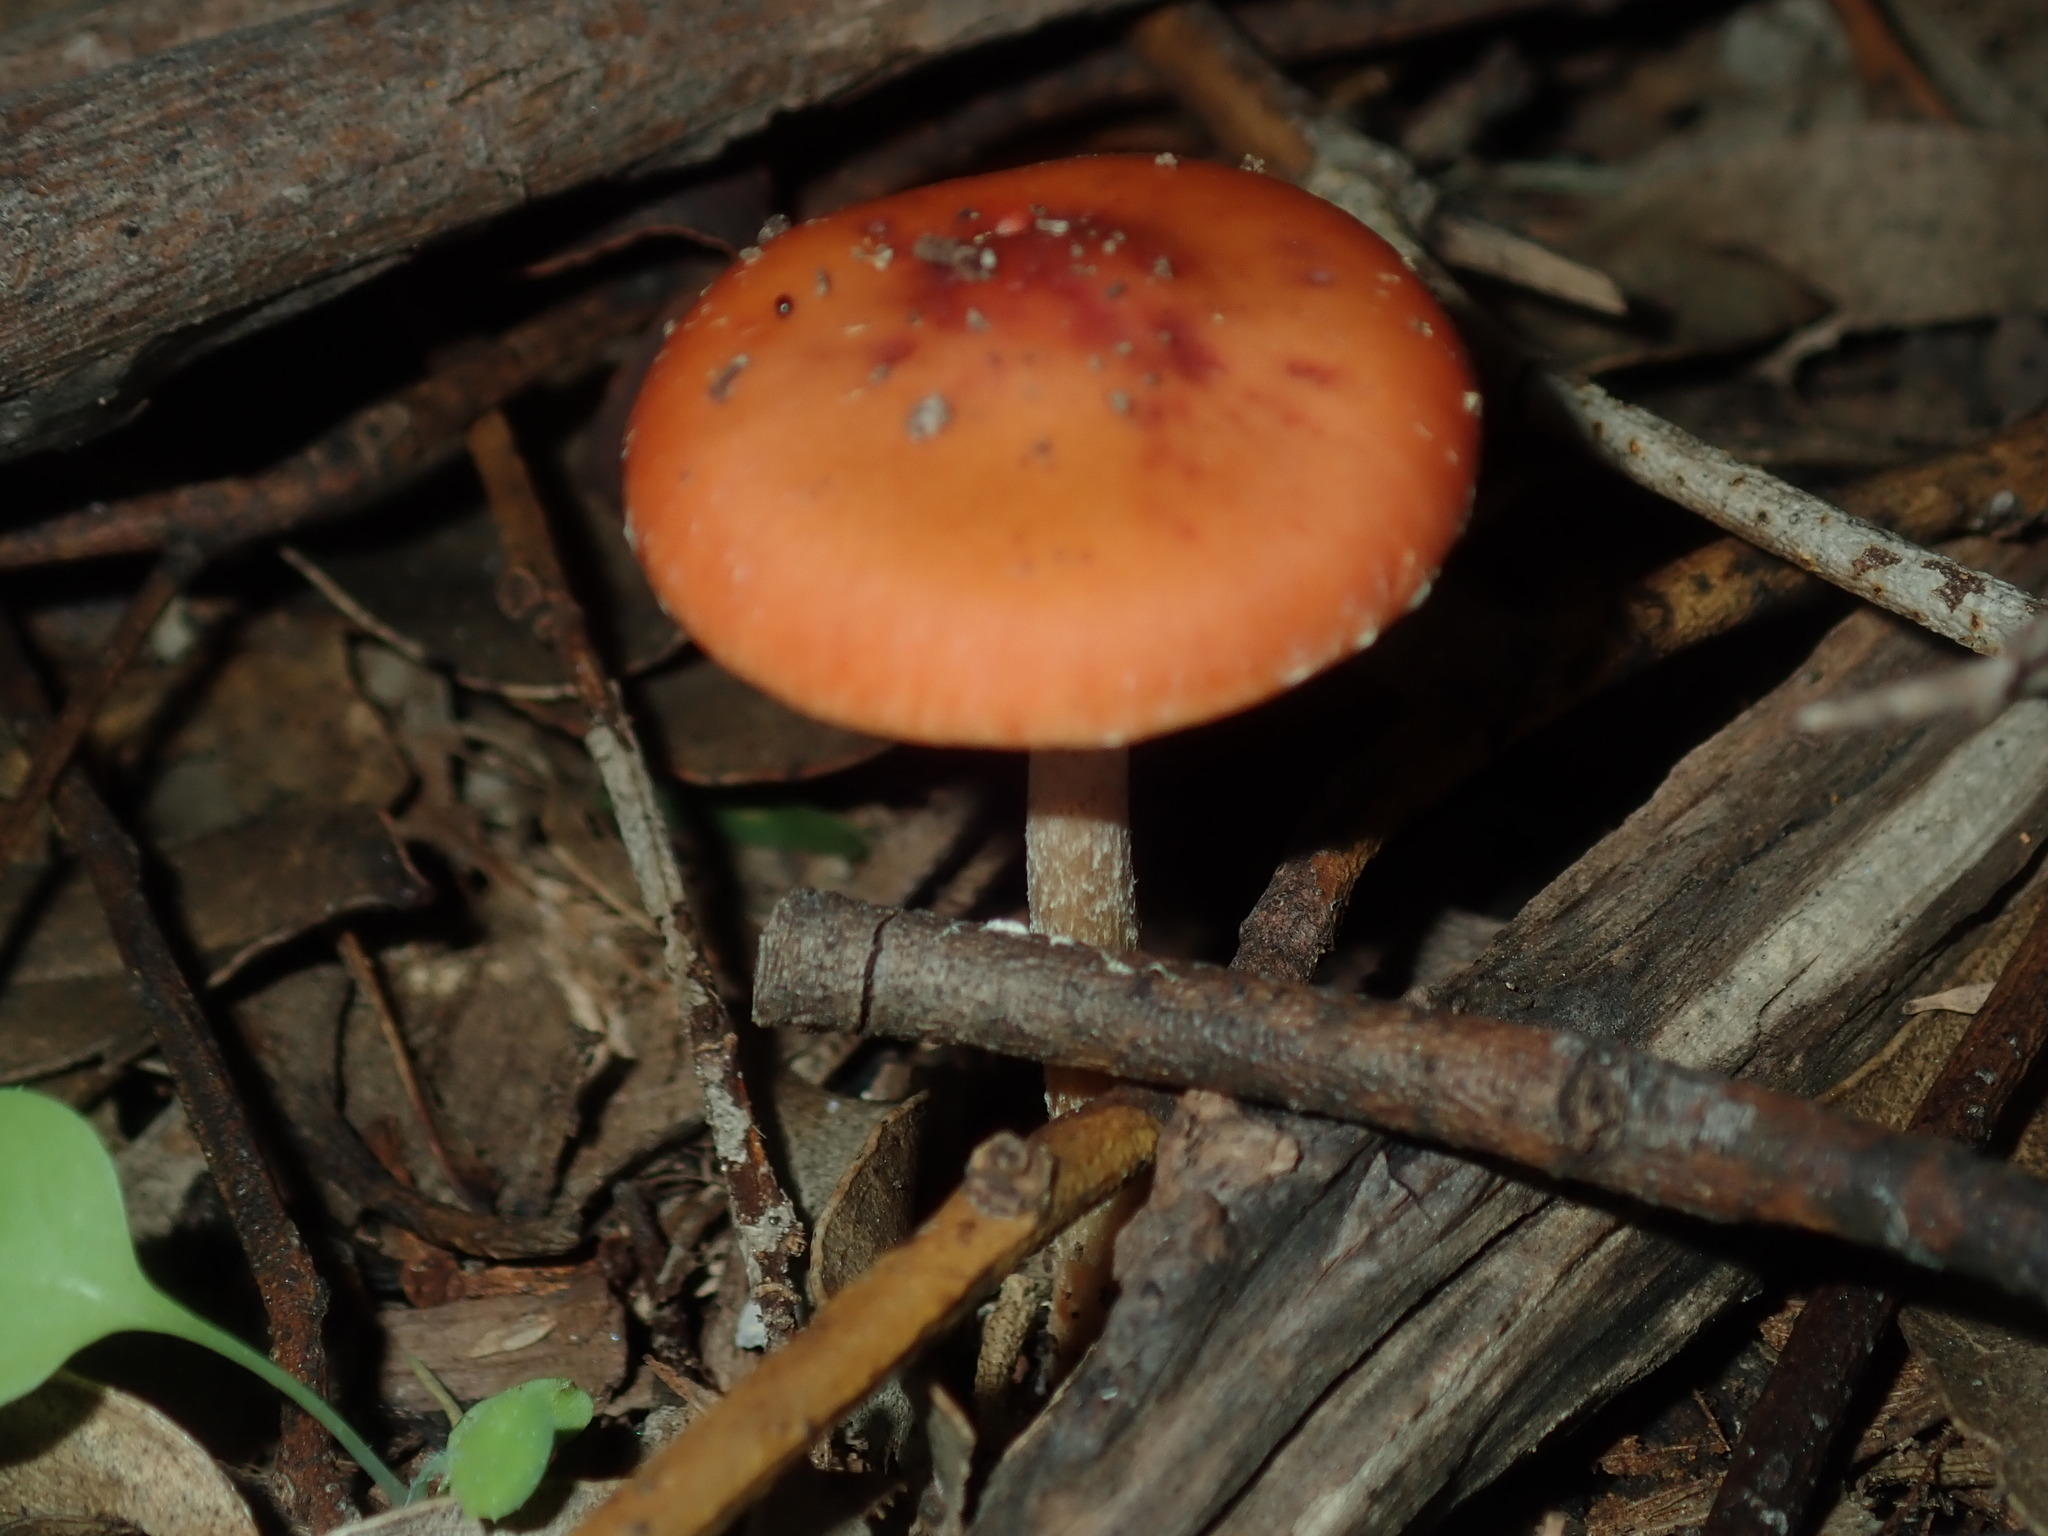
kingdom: Fungi
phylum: Basidiomycota
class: Agaricomycetes
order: Agaricales
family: Strophariaceae
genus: Leratiomyces
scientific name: Leratiomyces ceres
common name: Redlead roundhead
